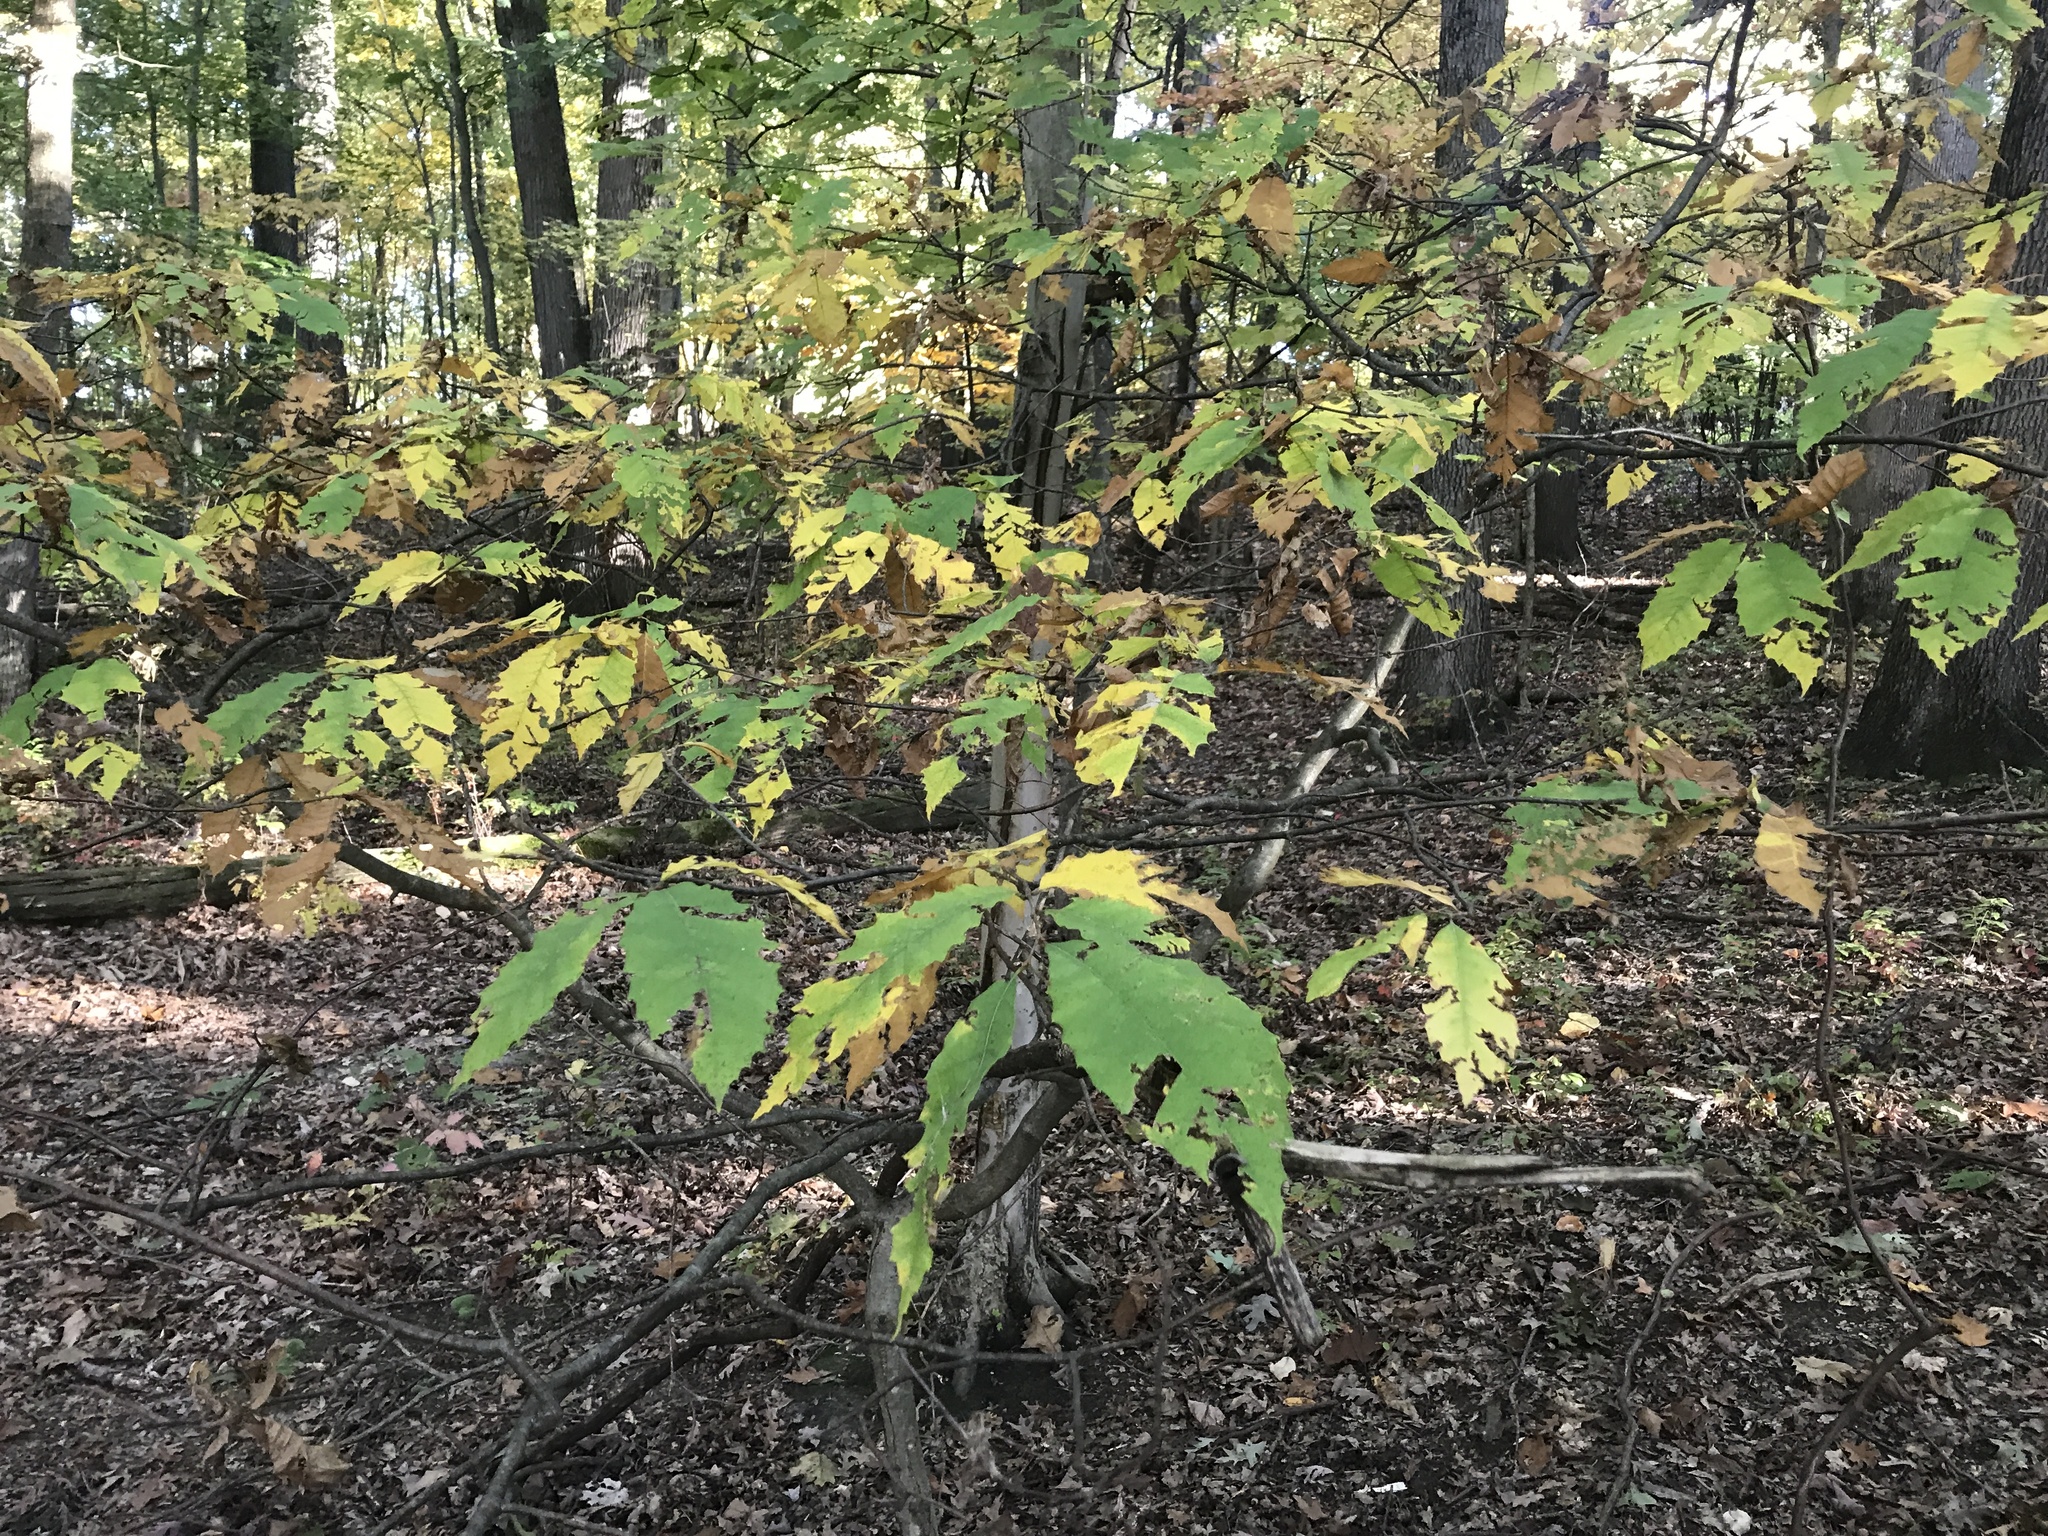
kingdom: Plantae
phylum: Tracheophyta
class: Magnoliopsida
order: Fagales
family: Fagaceae
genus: Castanea
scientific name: Castanea dentata
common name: American chestnut
